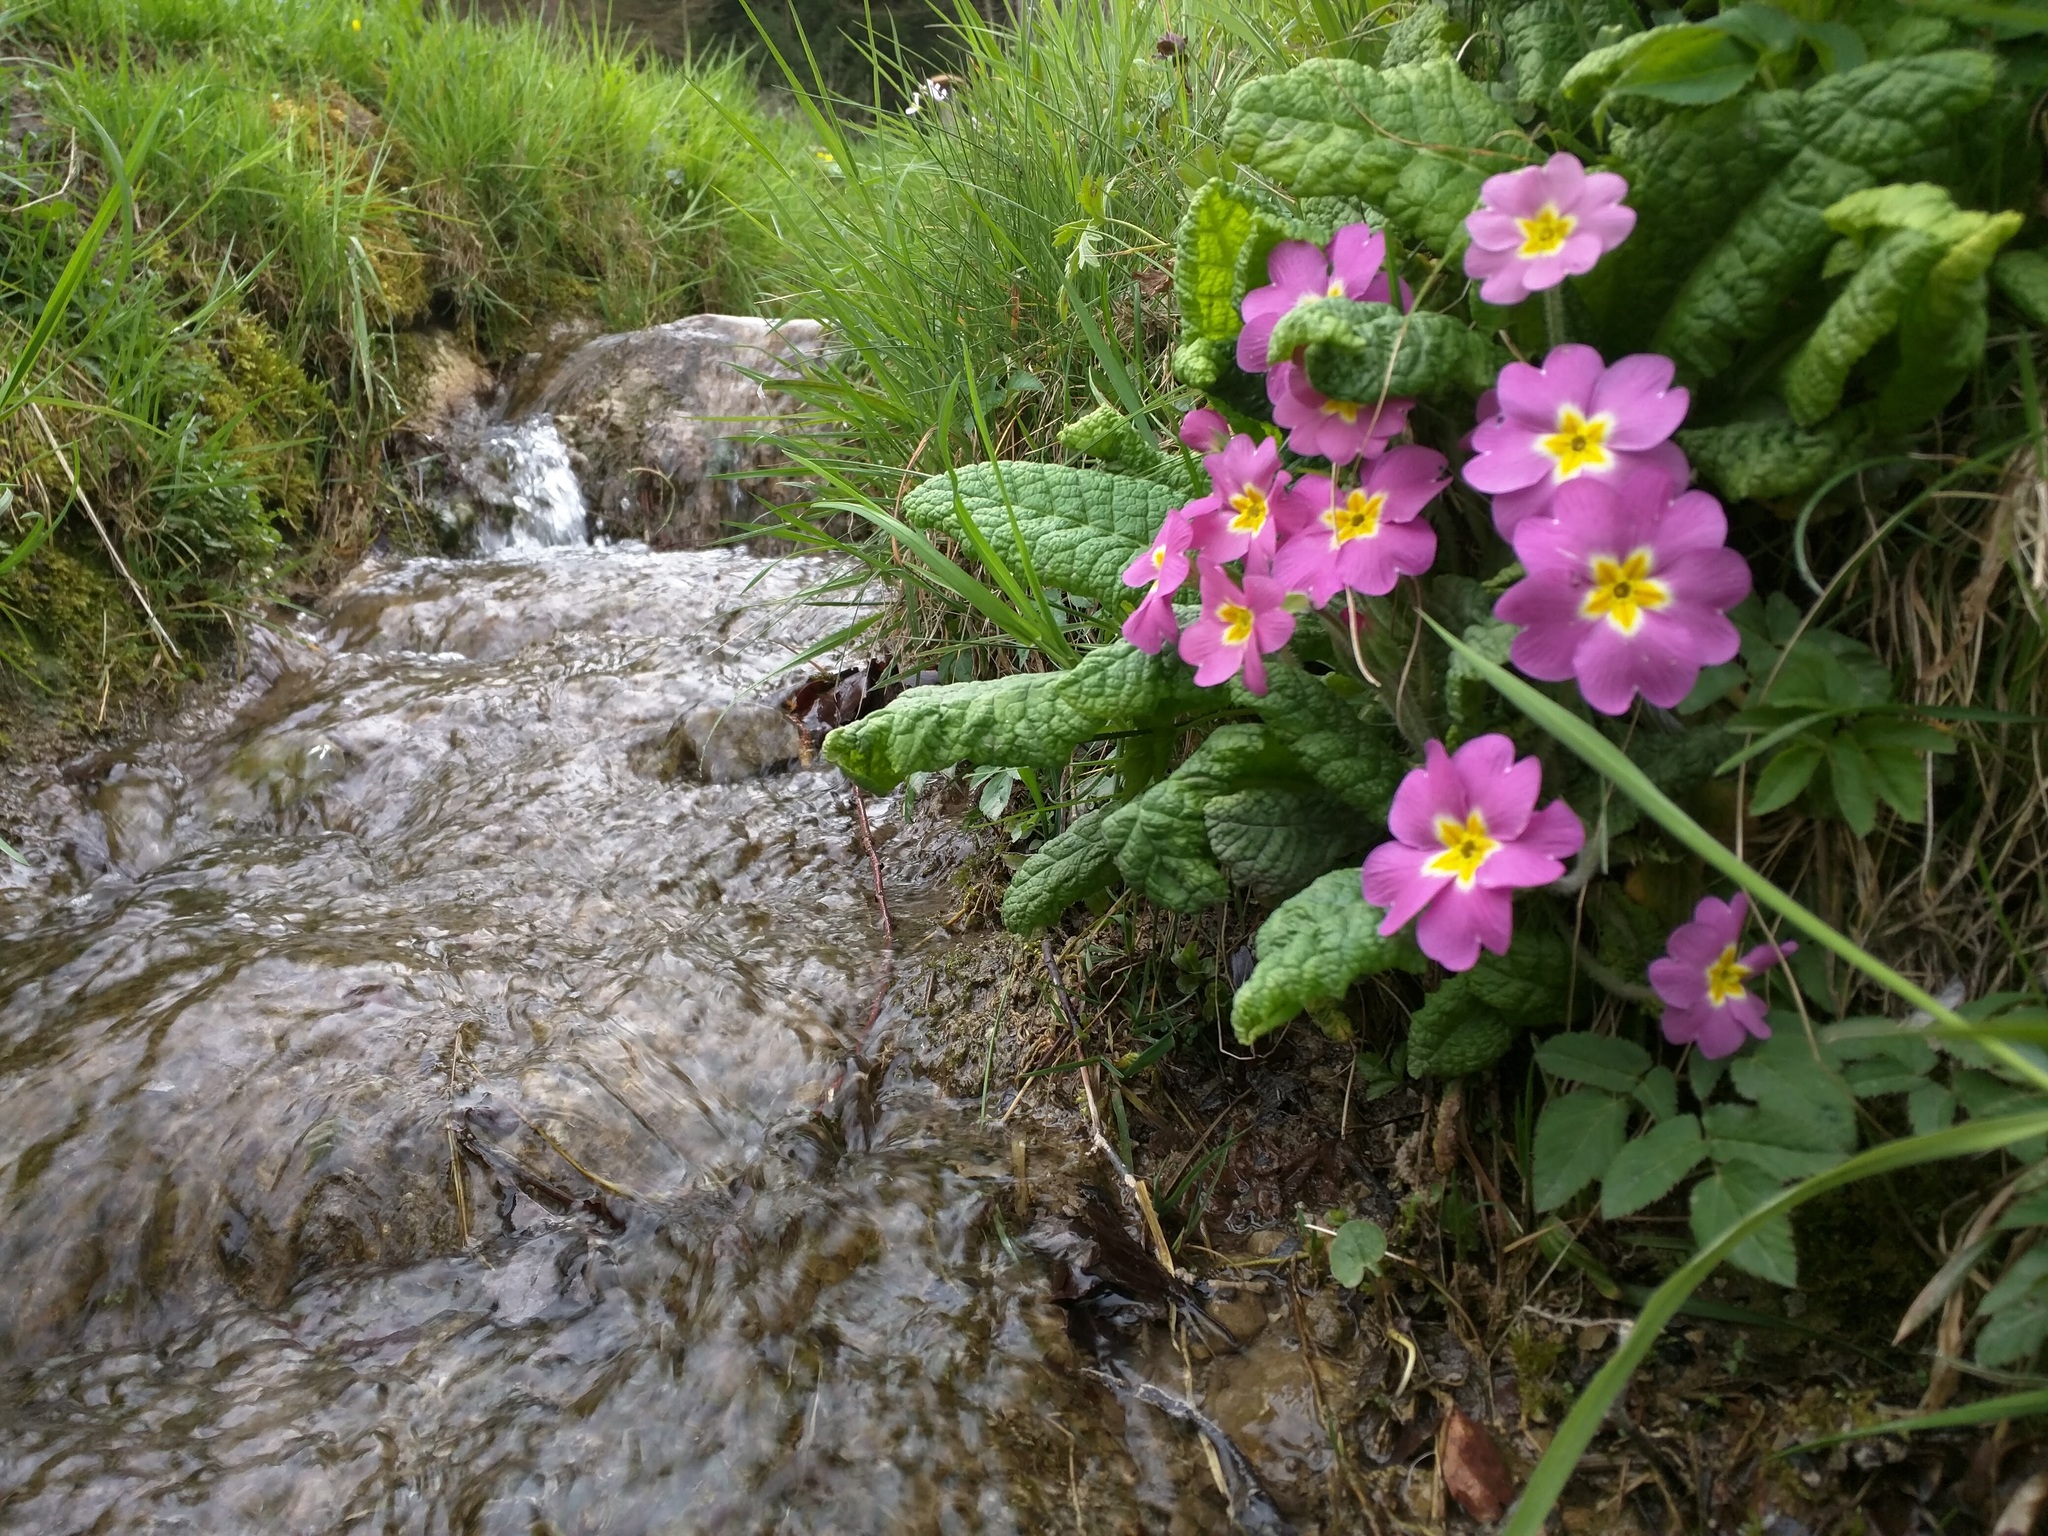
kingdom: Plantae
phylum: Tracheophyta
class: Magnoliopsida
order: Ericales
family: Primulaceae
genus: Primula
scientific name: Primula vulgaris
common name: Primrose
